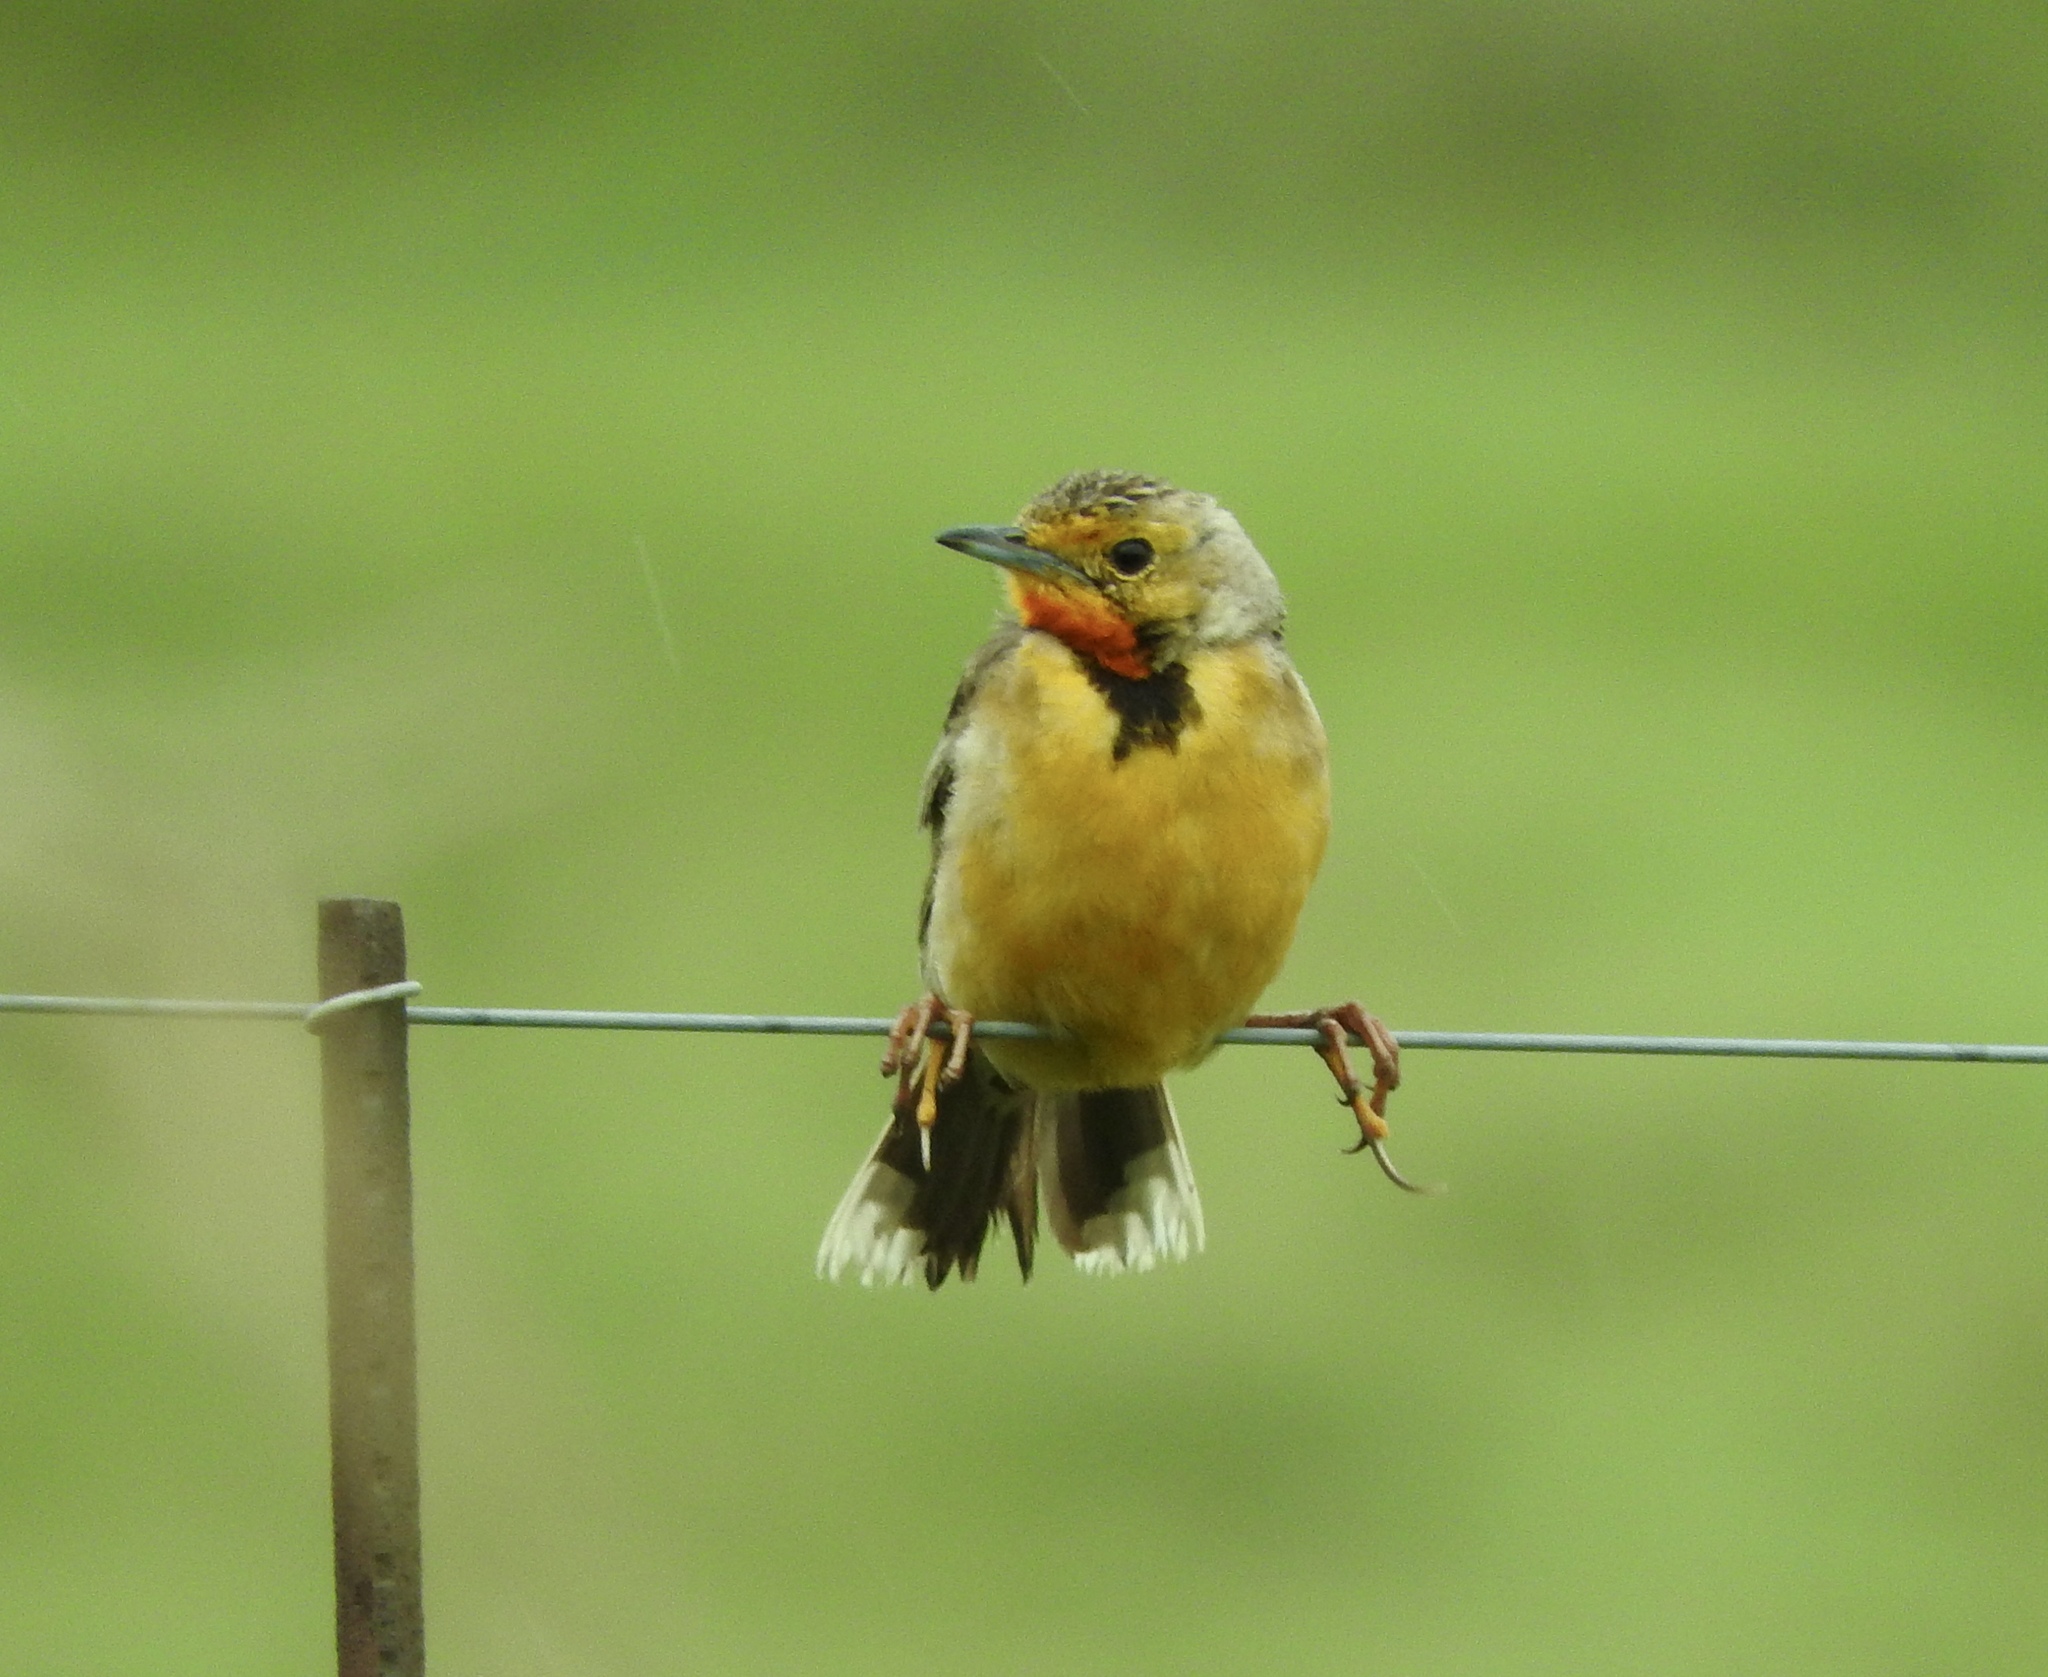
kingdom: Animalia
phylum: Chordata
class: Aves
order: Passeriformes
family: Motacillidae
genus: Macronyx
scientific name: Macronyx capensis
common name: Cape longclaw
